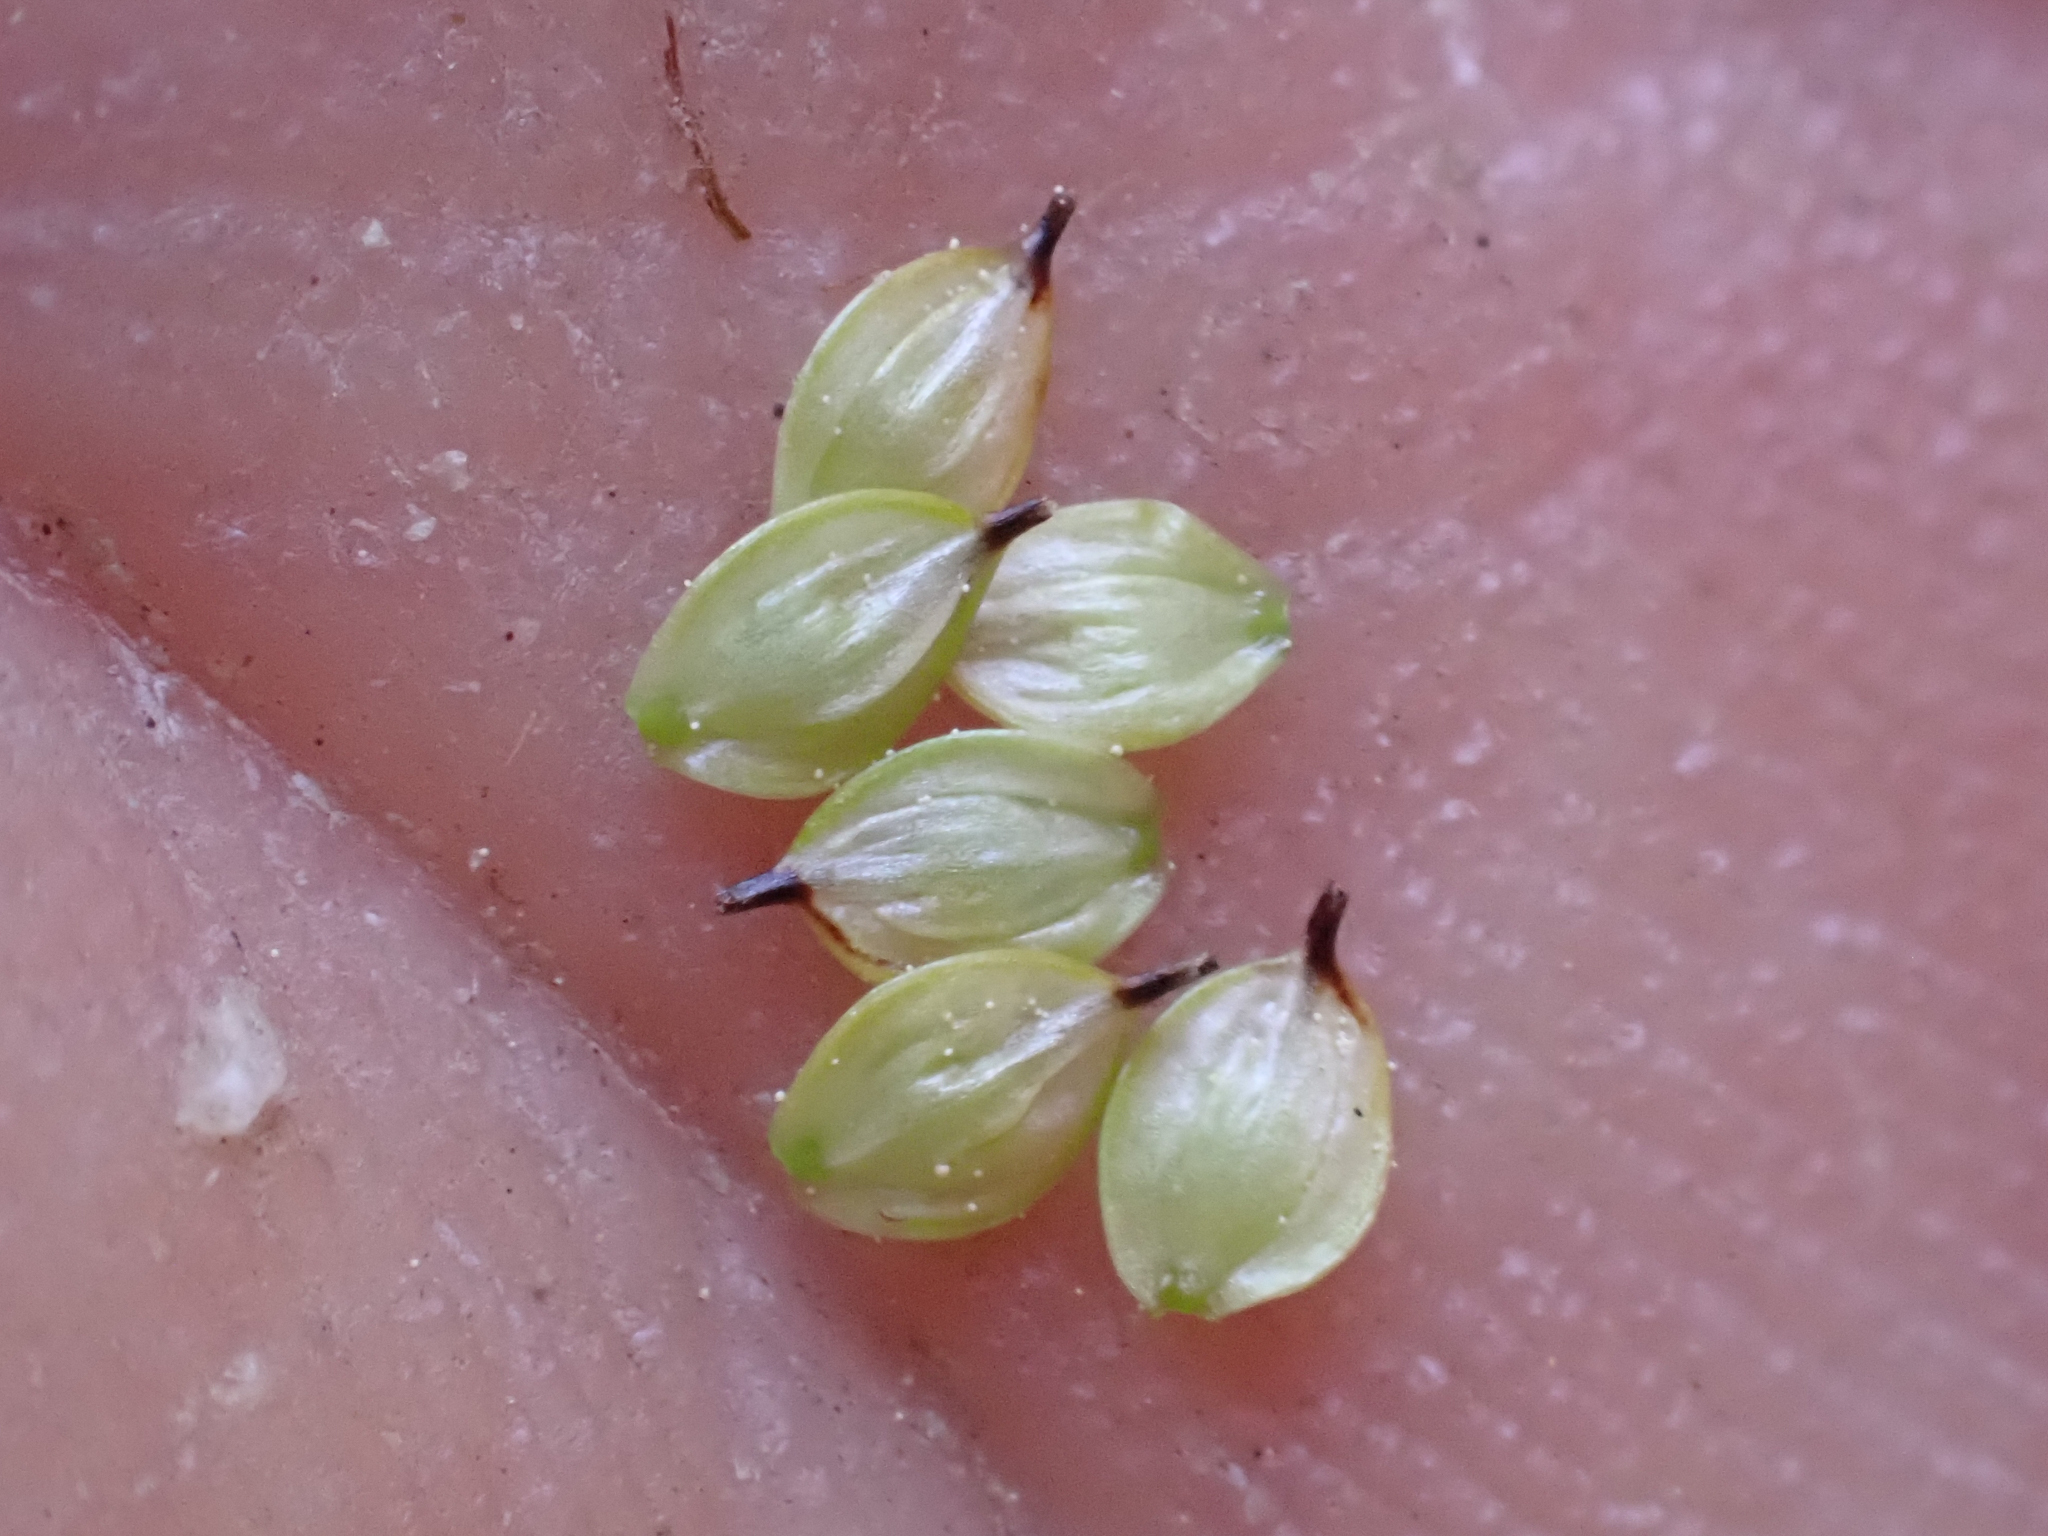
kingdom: Plantae
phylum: Tracheophyta
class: Liliopsida
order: Poales
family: Cyperaceae
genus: Carex
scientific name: Carex capitata
